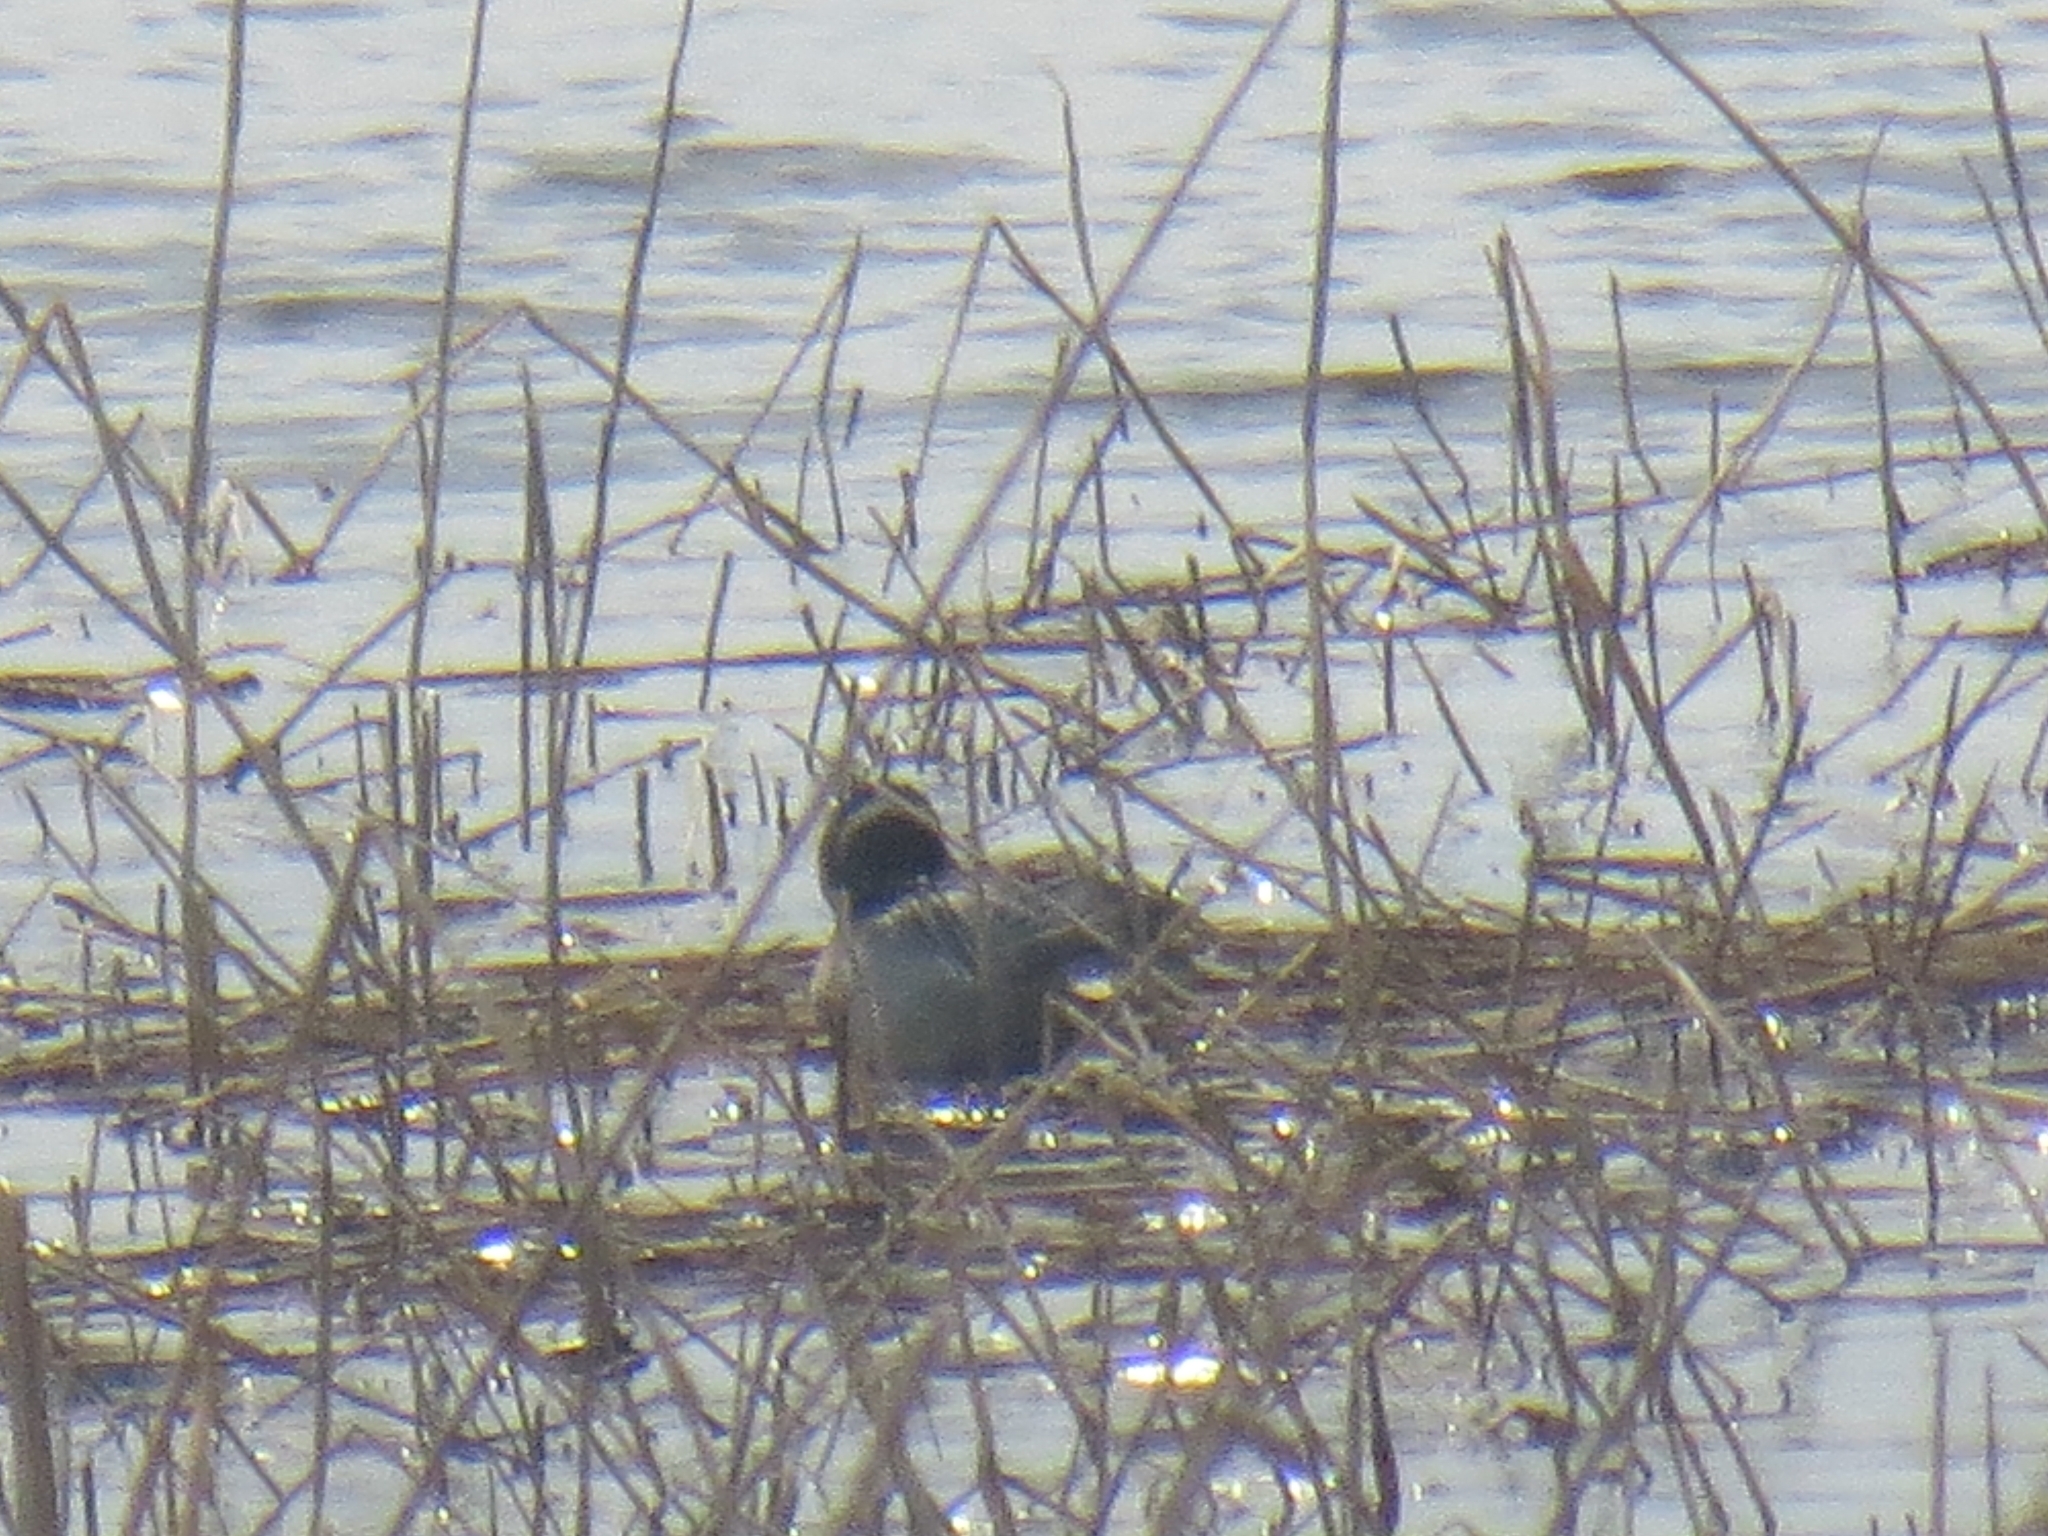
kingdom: Animalia
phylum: Chordata
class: Aves
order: Anseriformes
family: Anatidae
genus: Spatula
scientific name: Spatula querquedula
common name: Garganey
